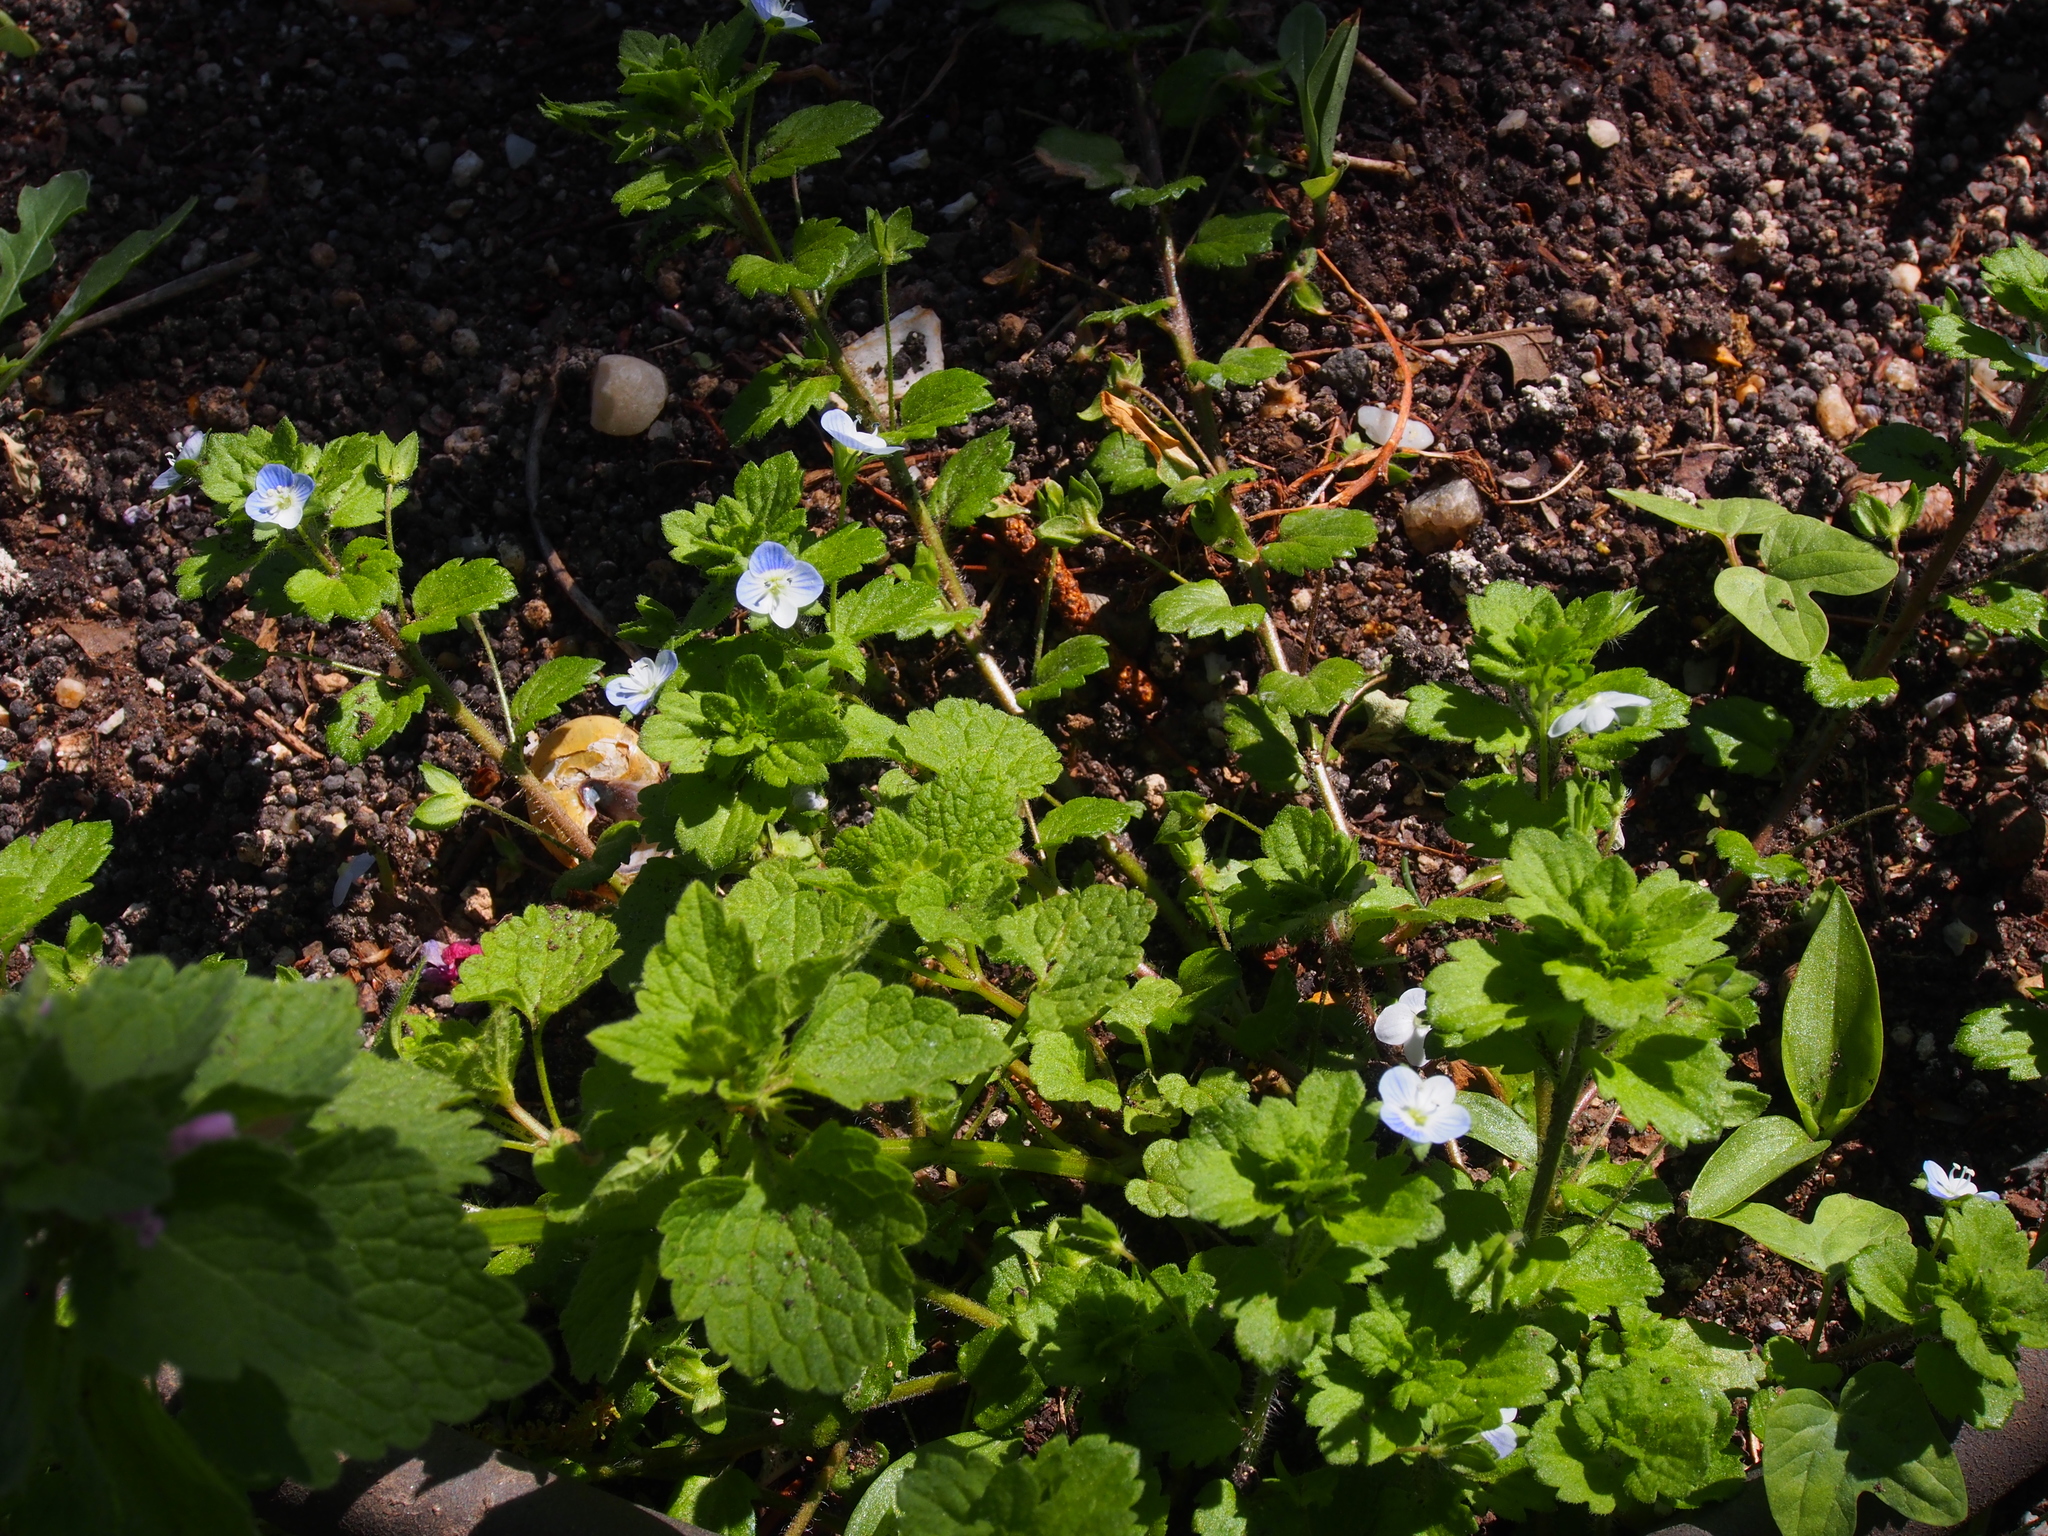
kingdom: Plantae
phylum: Tracheophyta
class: Magnoliopsida
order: Lamiales
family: Plantaginaceae
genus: Veronica
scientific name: Veronica persica
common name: Common field-speedwell
